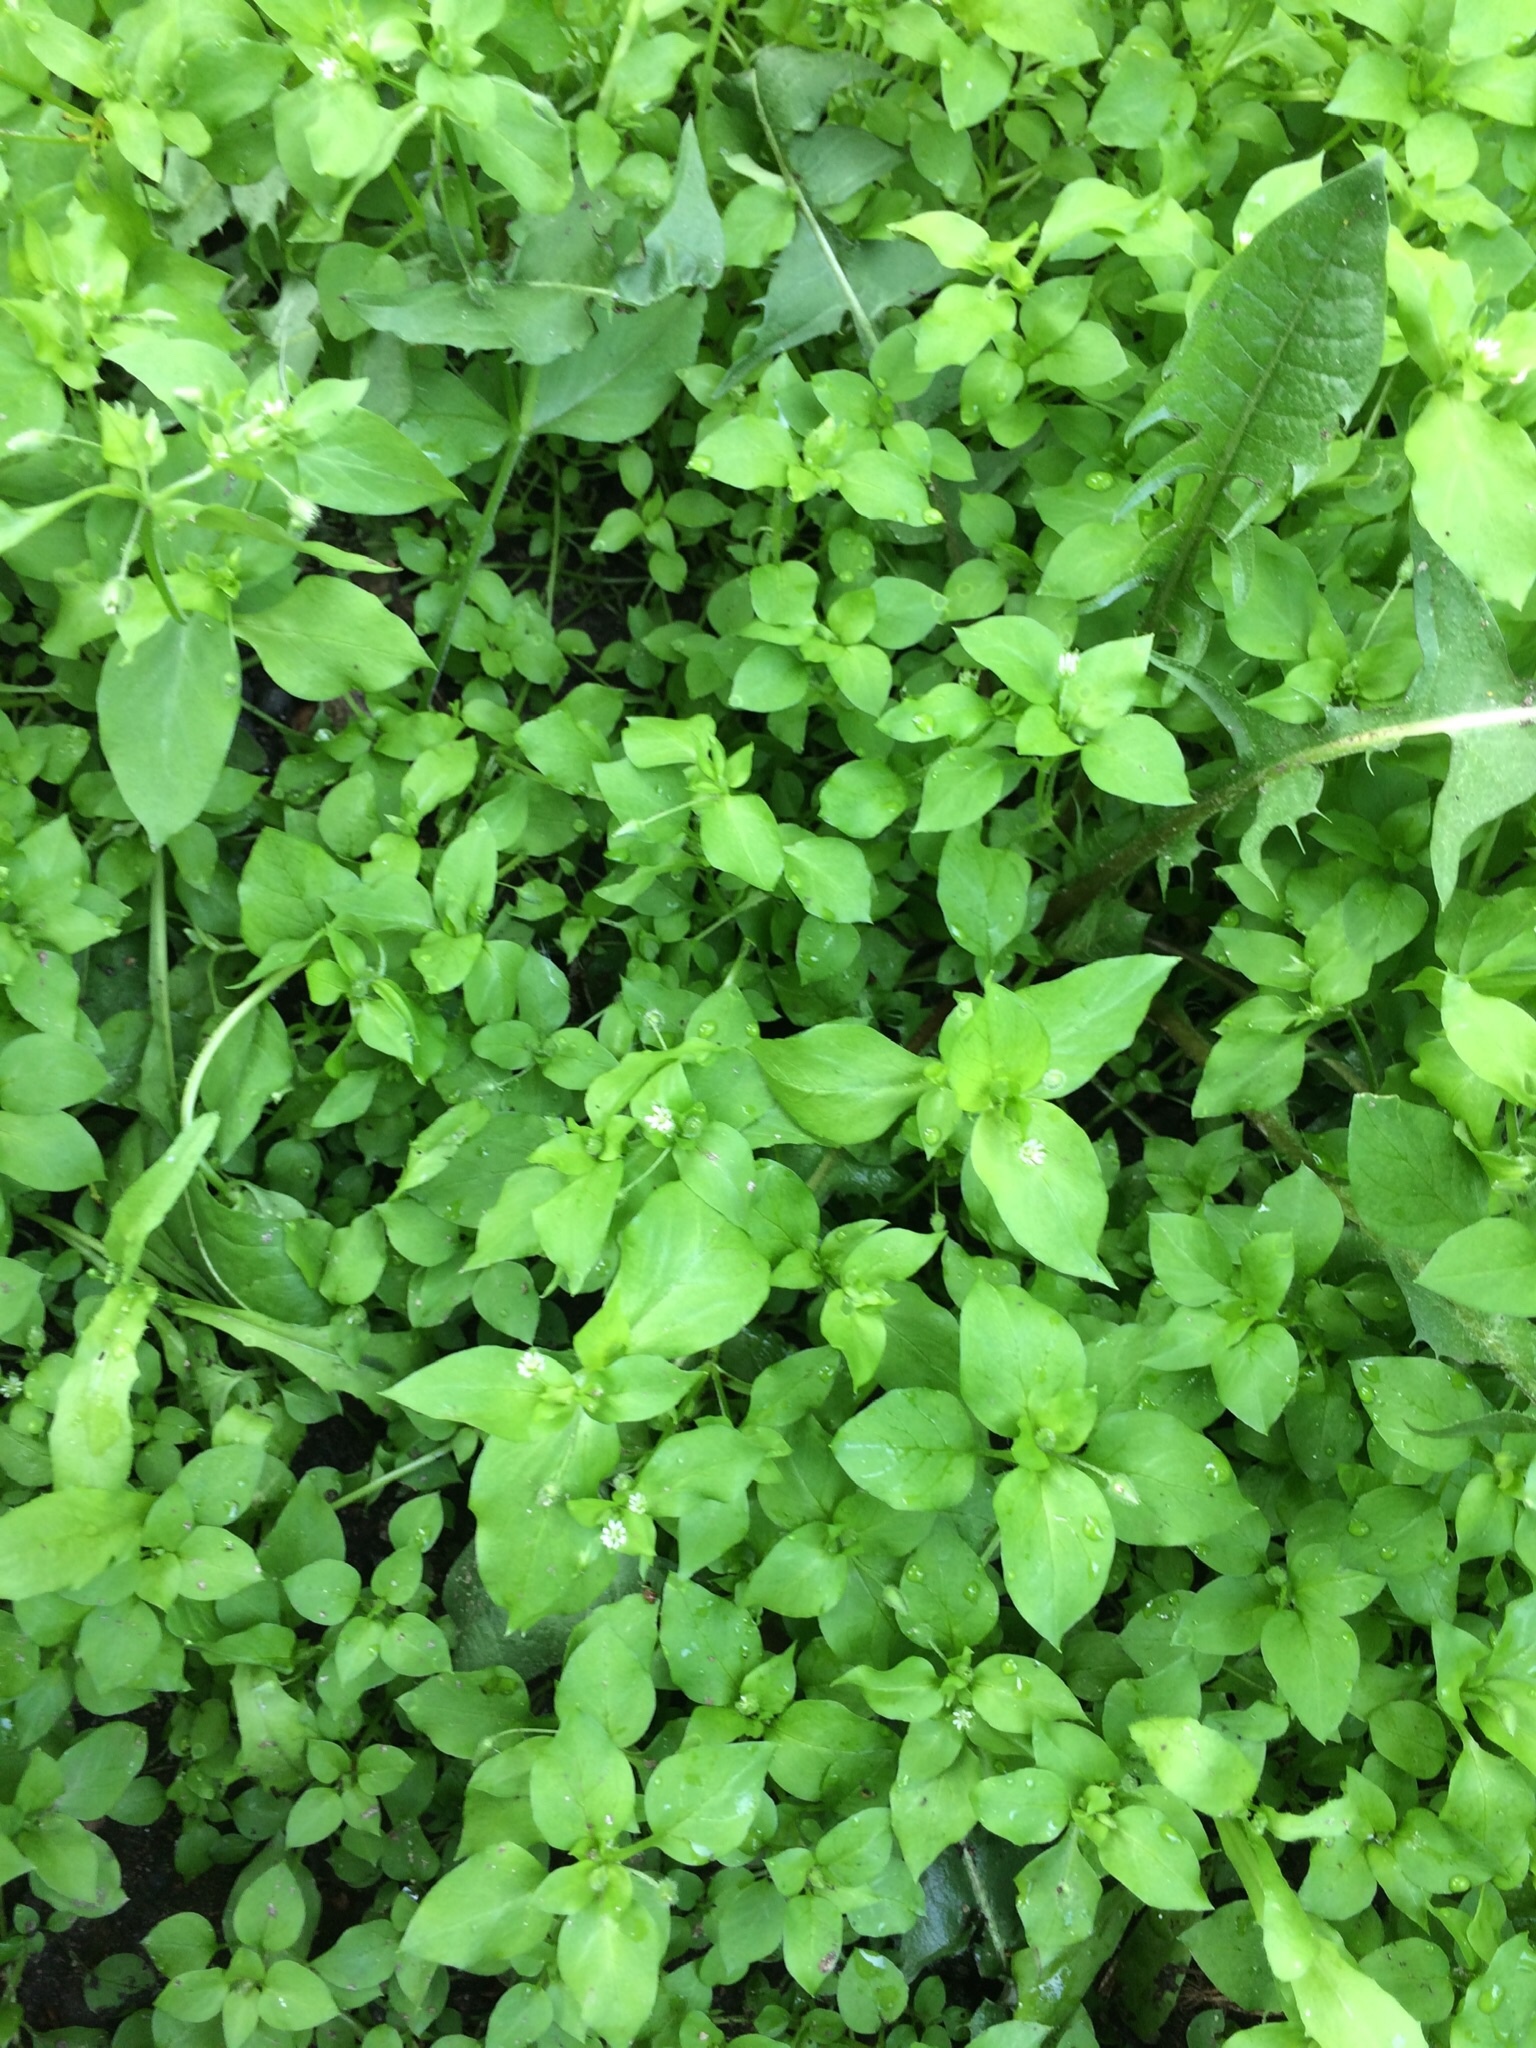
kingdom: Plantae
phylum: Tracheophyta
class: Magnoliopsida
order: Caryophyllales
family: Caryophyllaceae
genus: Stellaria
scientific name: Stellaria media
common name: Common chickweed
